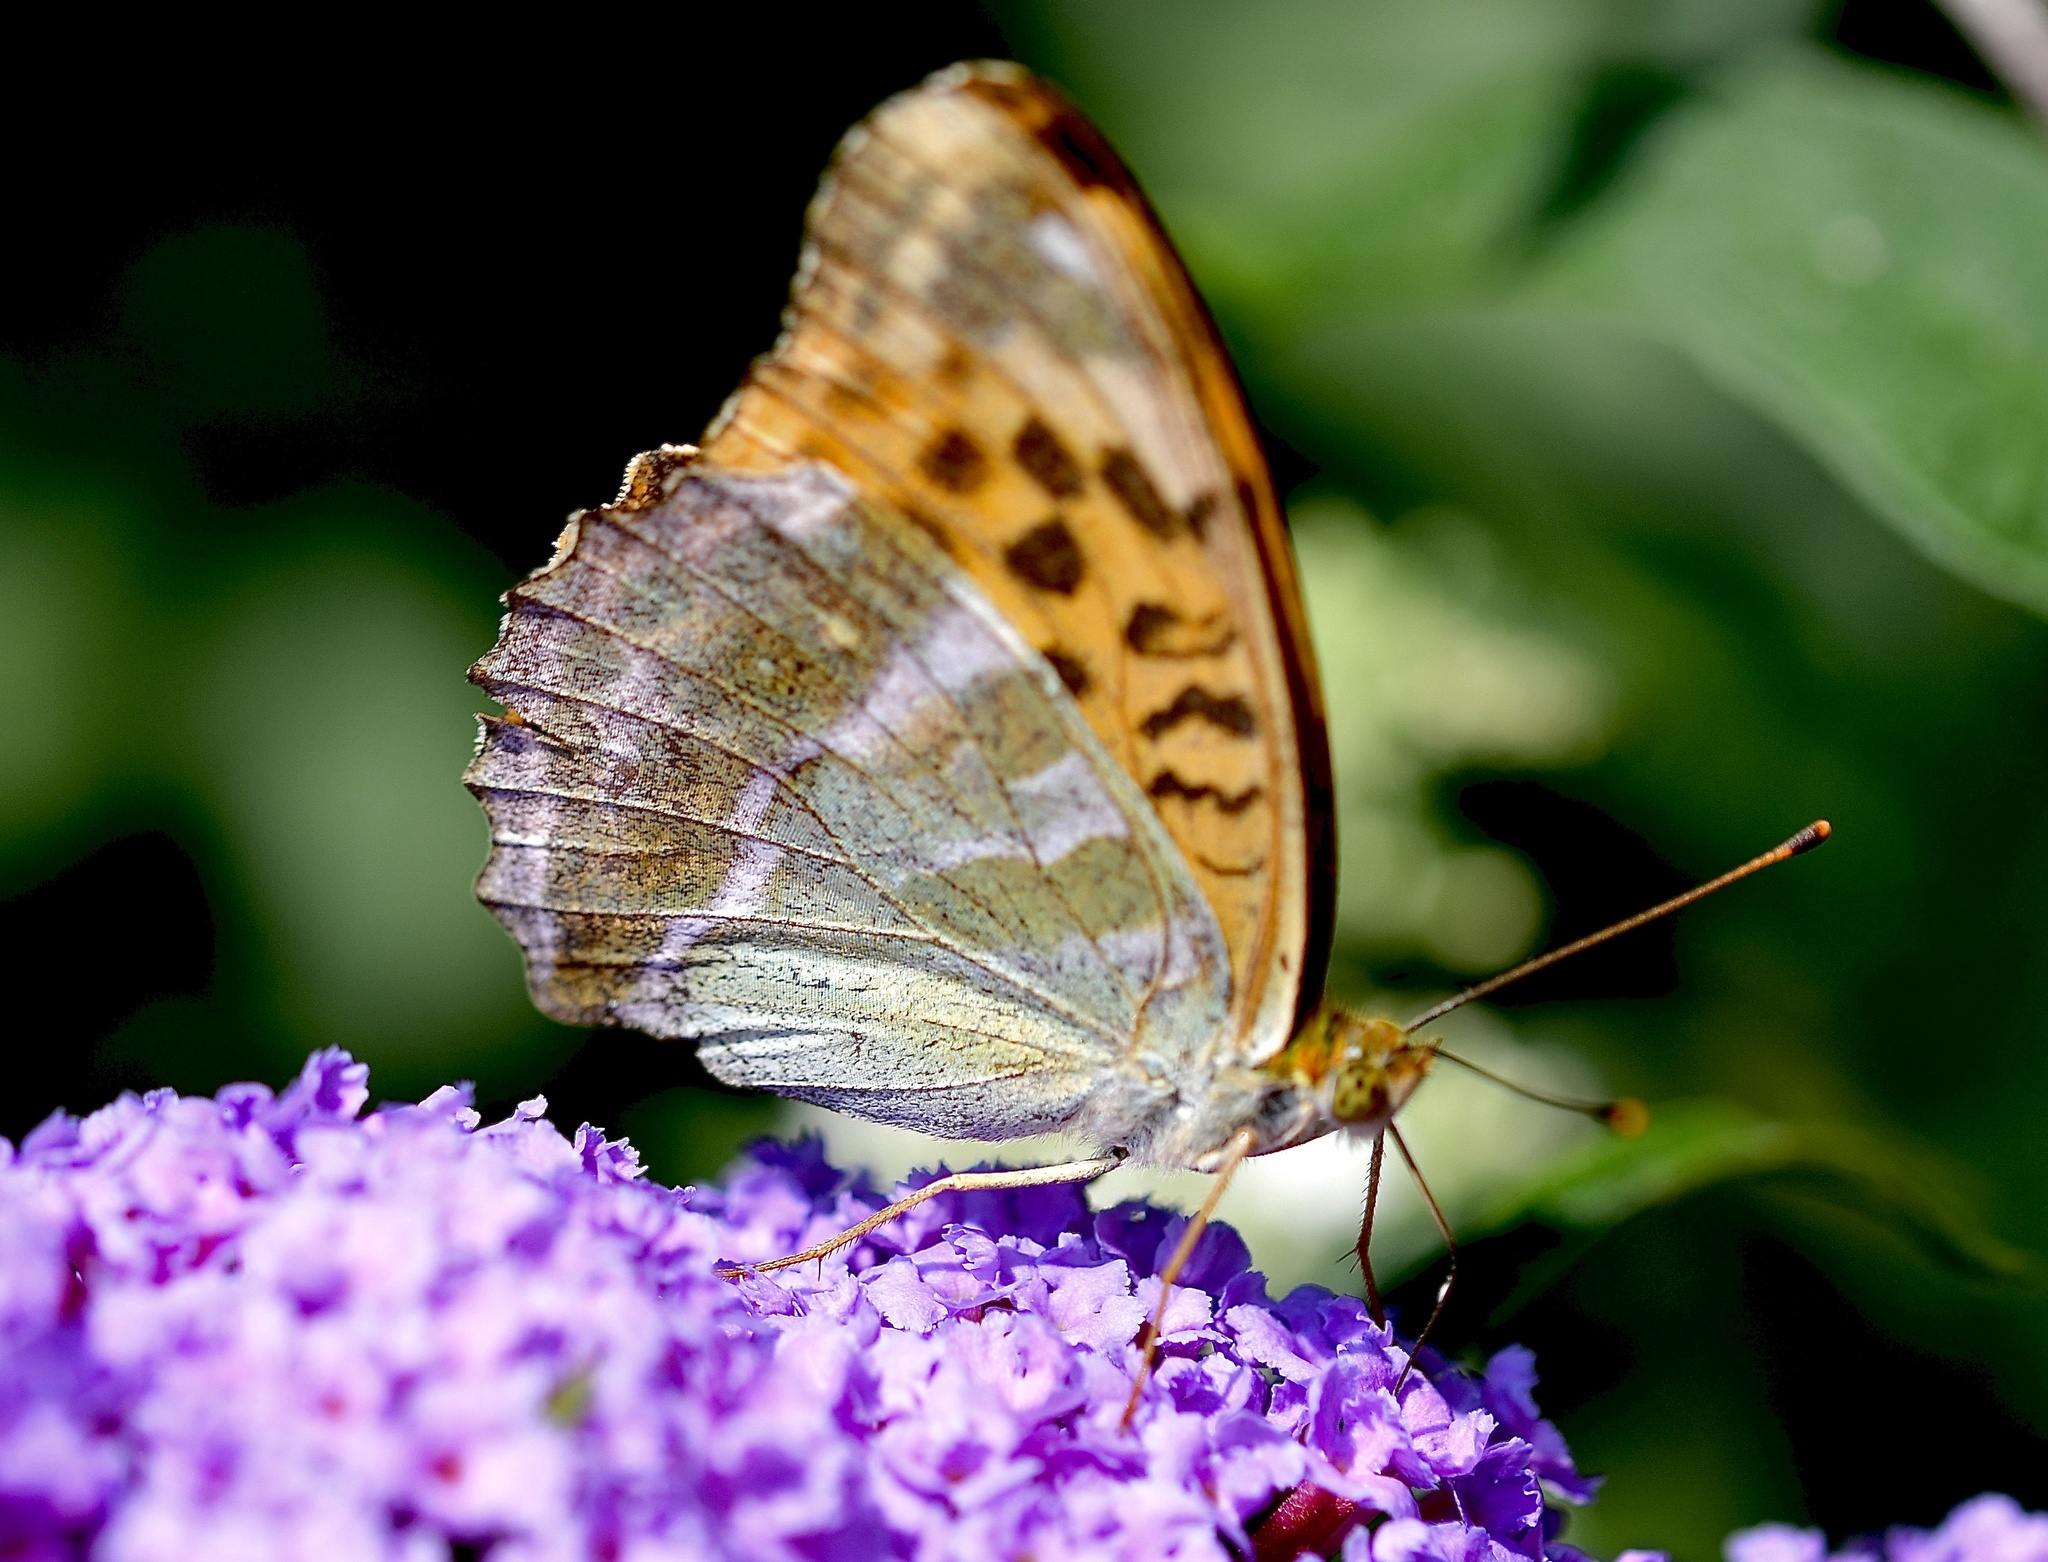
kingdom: Animalia
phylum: Arthropoda
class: Insecta
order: Lepidoptera
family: Nymphalidae
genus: Argynnis
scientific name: Argynnis paphia
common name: Silver-washed fritillary
